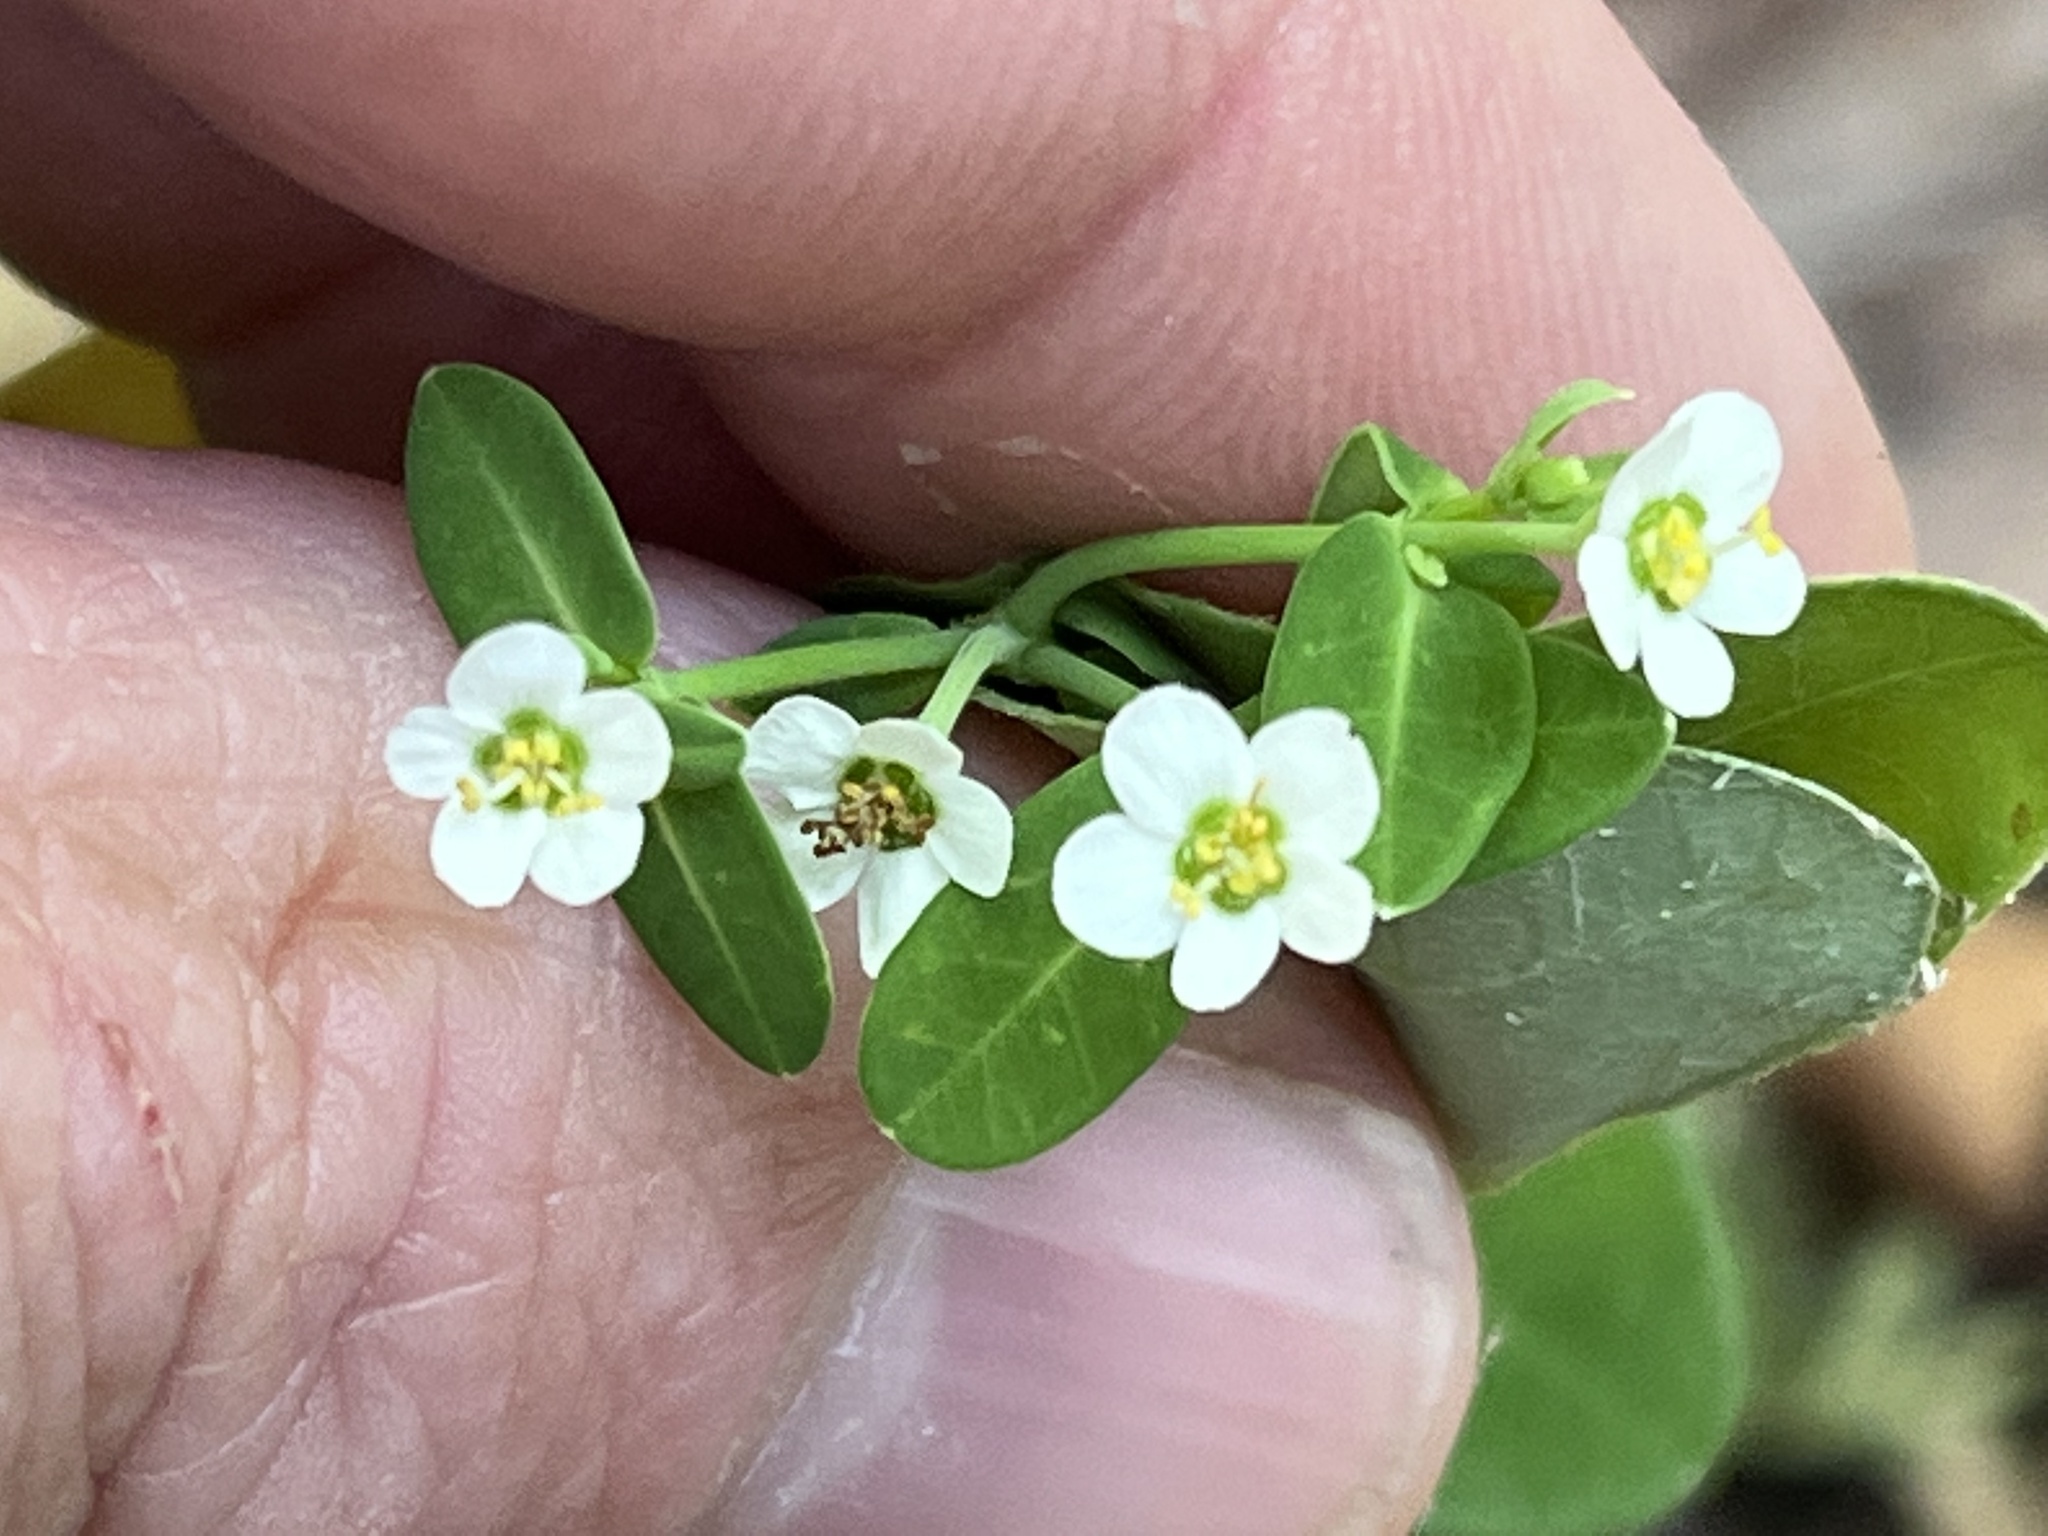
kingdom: Plantae
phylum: Tracheophyta
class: Magnoliopsida
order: Malpighiales
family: Euphorbiaceae
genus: Euphorbia
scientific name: Euphorbia corollata
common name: Flowering spurge
